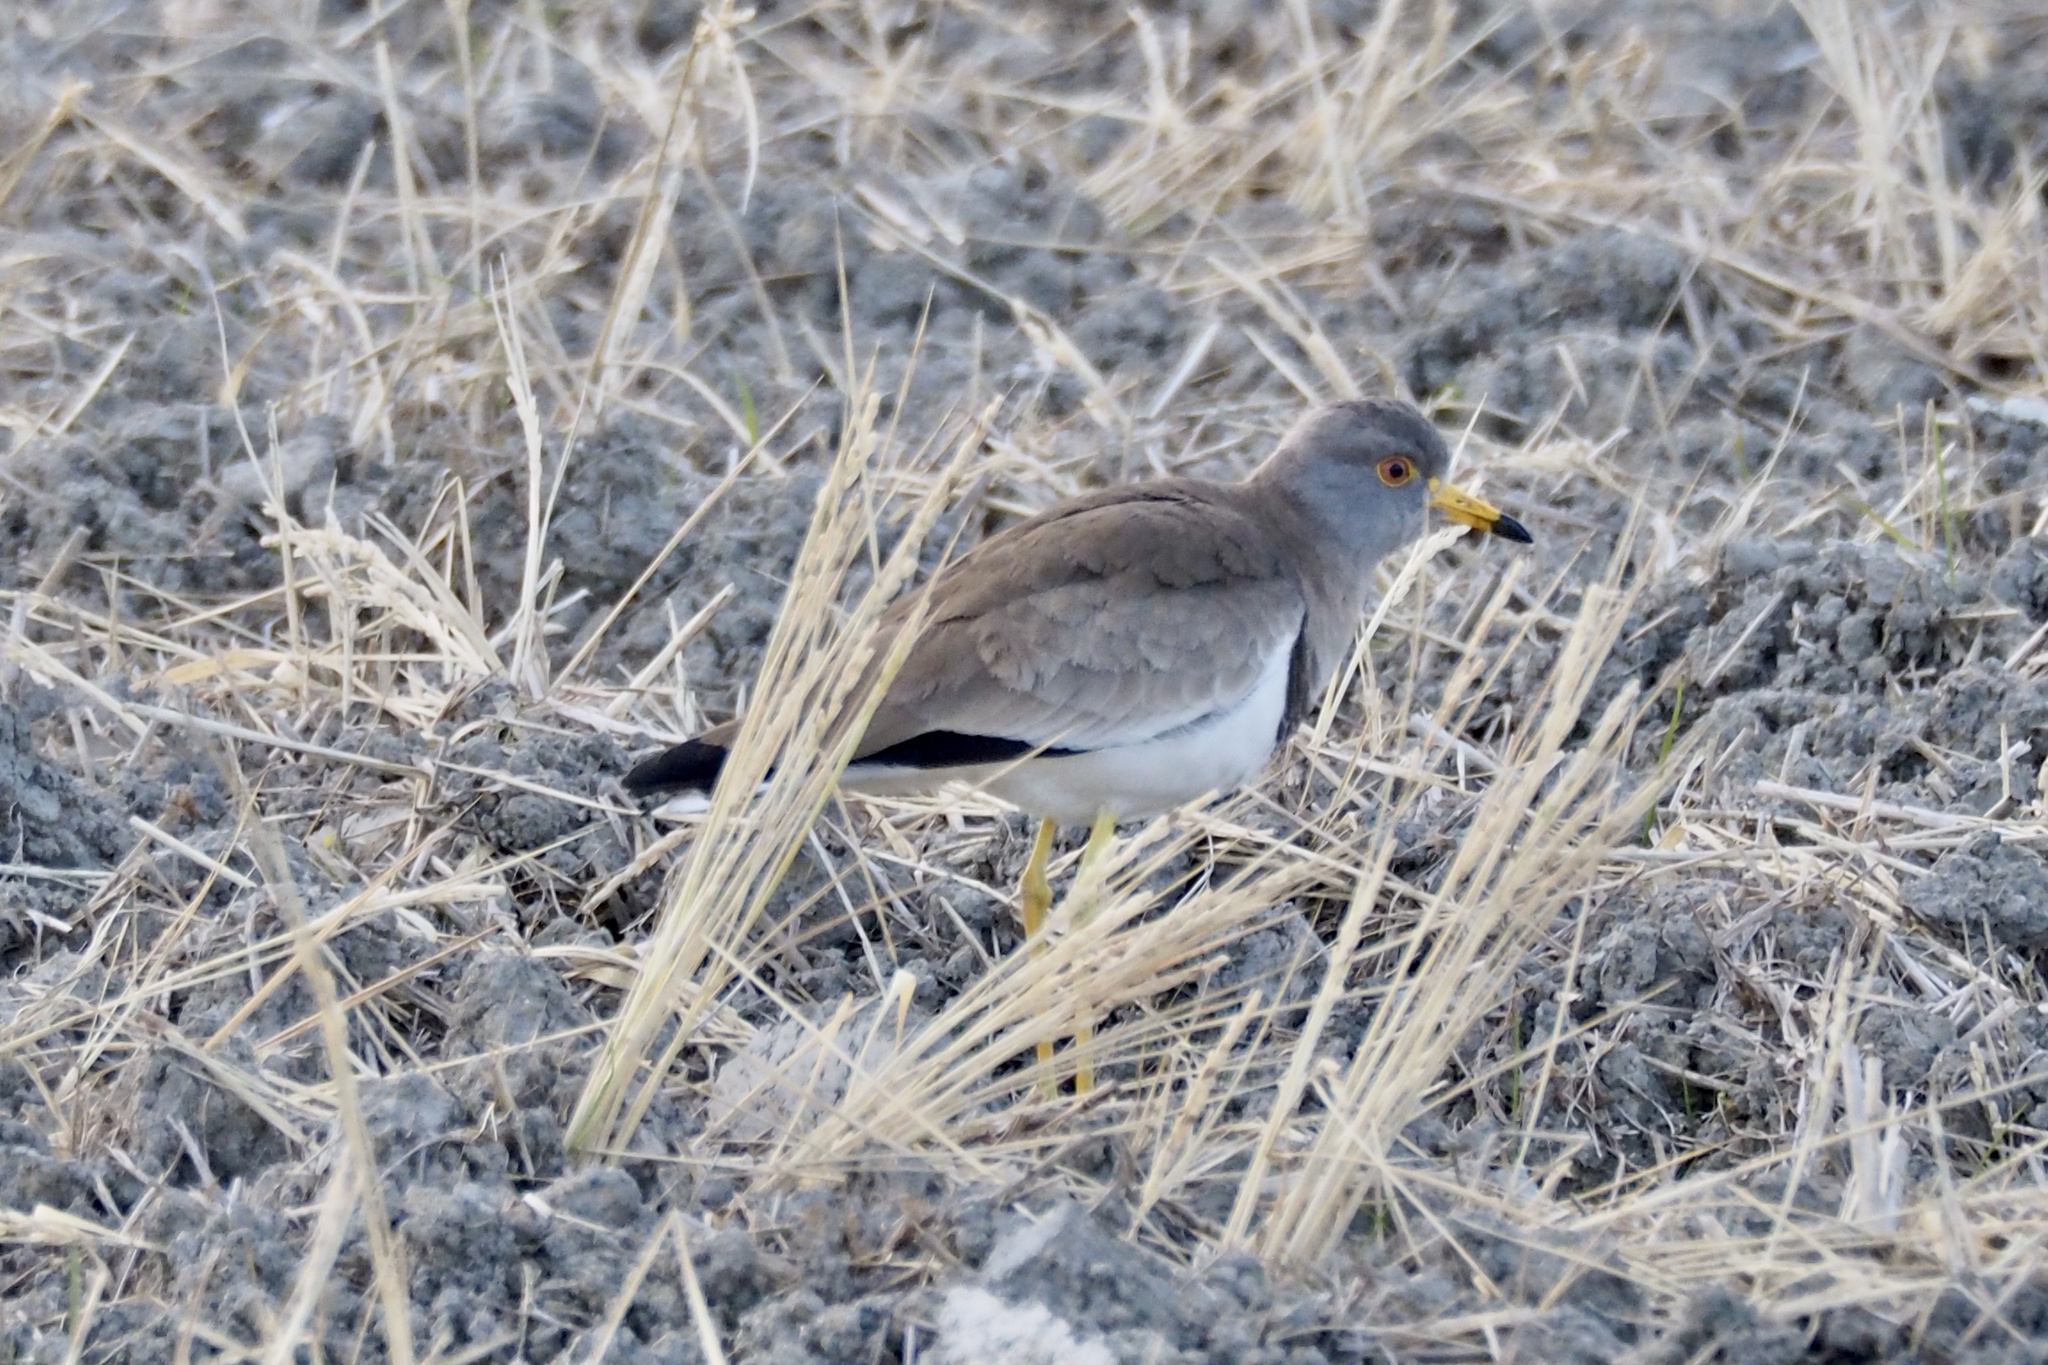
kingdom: Animalia
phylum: Chordata
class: Aves
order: Charadriiformes
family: Charadriidae
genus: Vanellus
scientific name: Vanellus cinereus
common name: Grey-headed lapwing
